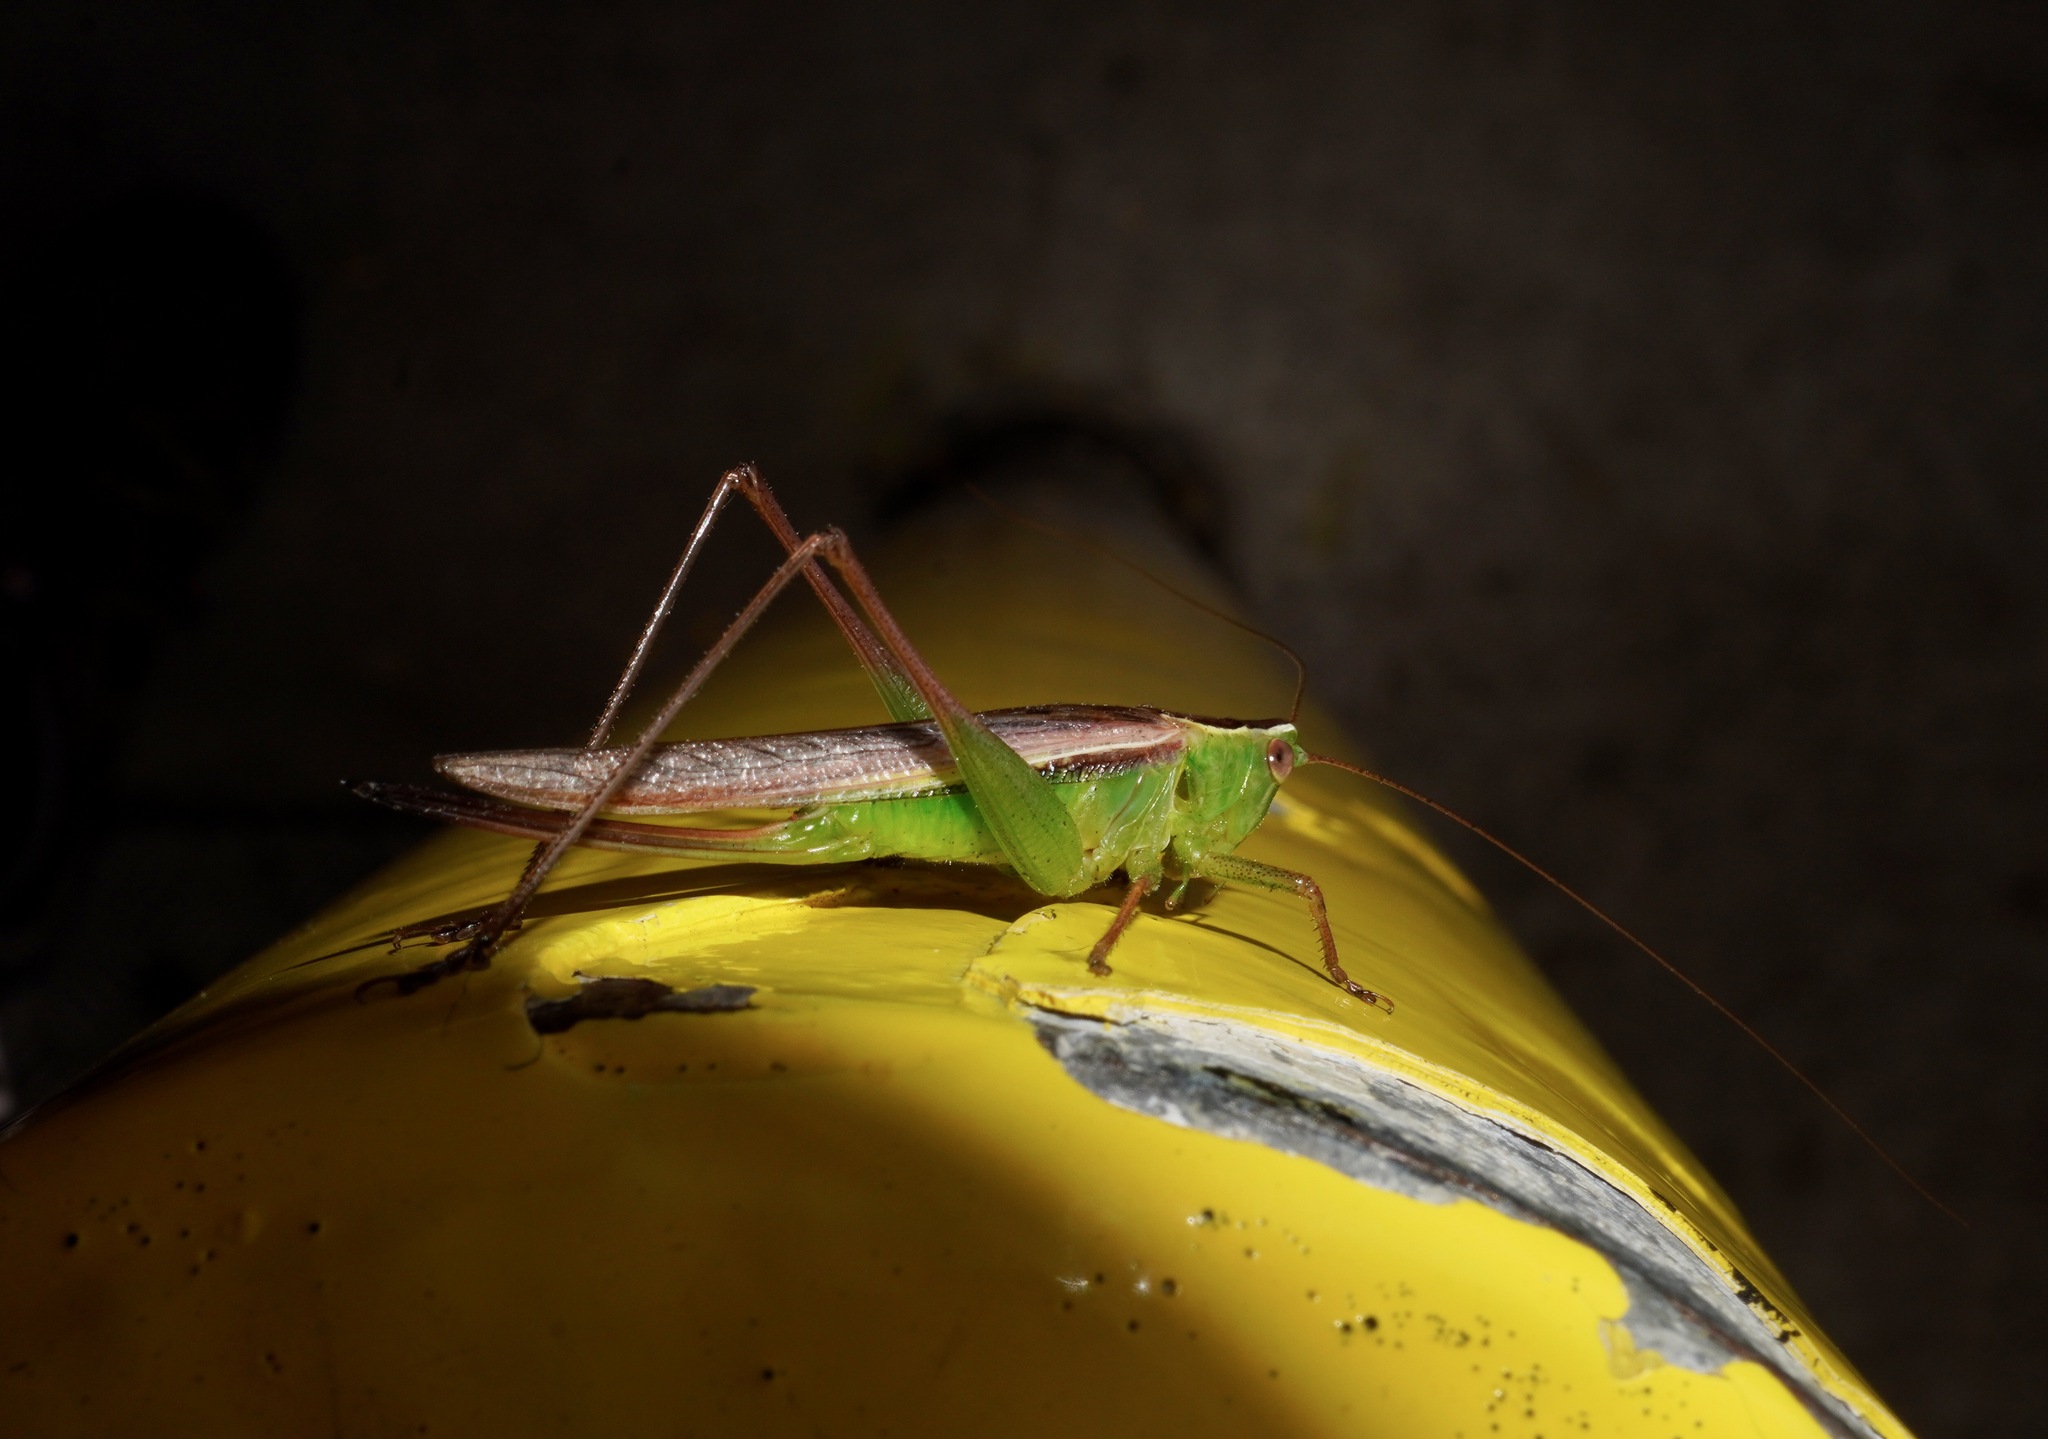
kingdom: Animalia
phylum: Arthropoda
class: Insecta
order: Orthoptera
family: Tettigoniidae
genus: Conocephalus
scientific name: Conocephalus albescens
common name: Whitish meadow katydid
